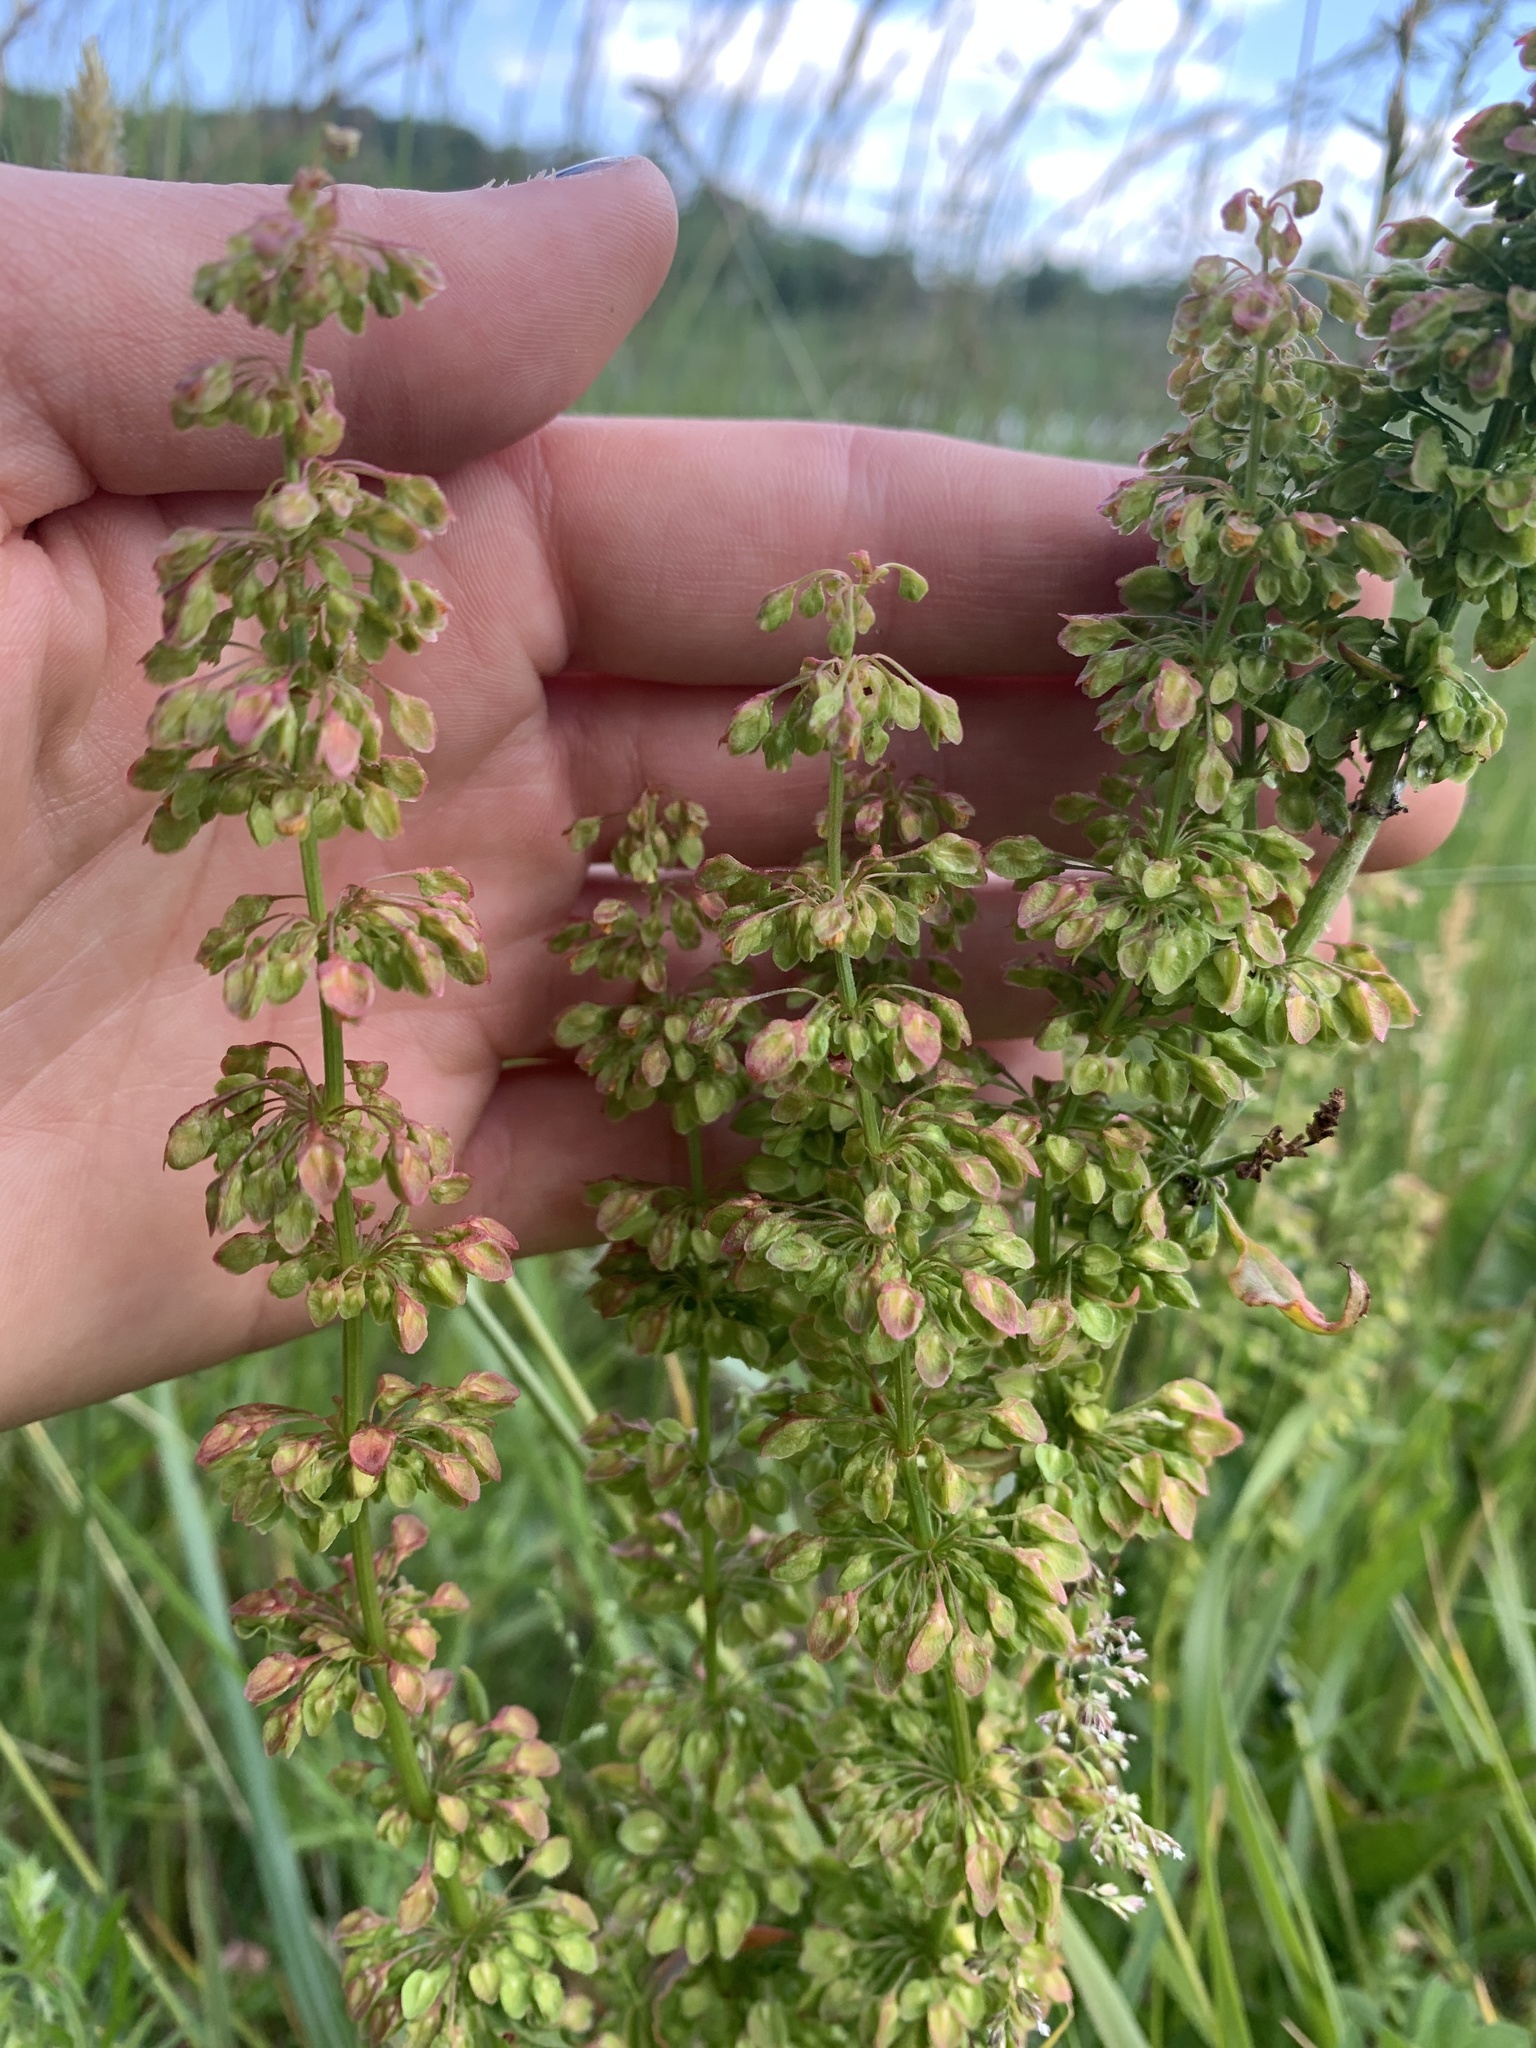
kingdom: Plantae
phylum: Tracheophyta
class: Magnoliopsida
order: Caryophyllales
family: Polygonaceae
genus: Rumex
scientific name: Rumex crispus
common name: Curled dock
